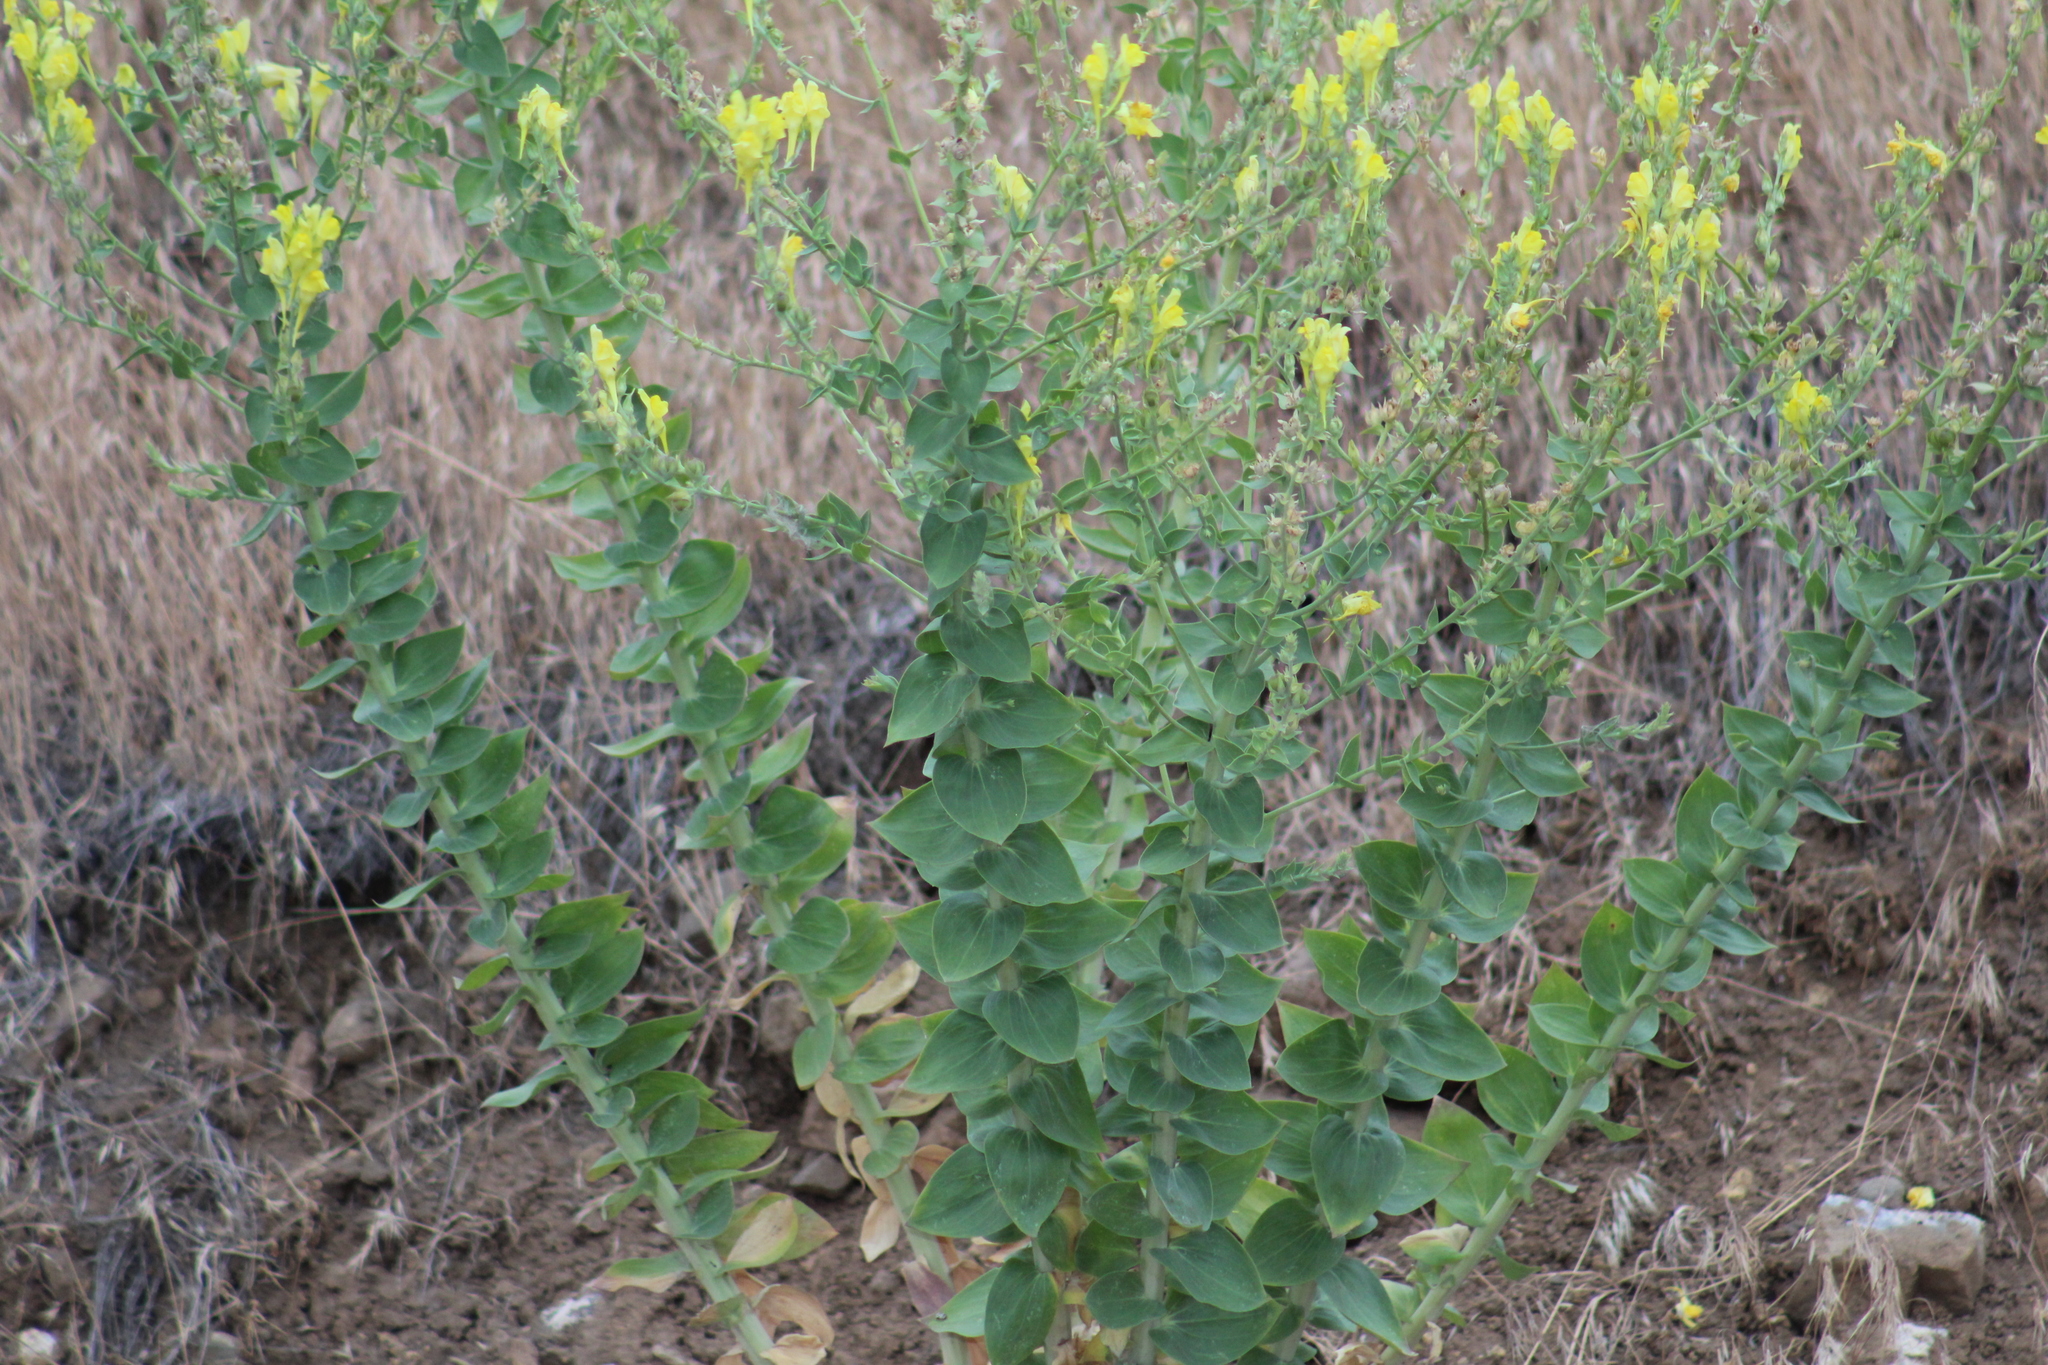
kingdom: Plantae
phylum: Tracheophyta
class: Magnoliopsida
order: Lamiales
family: Plantaginaceae
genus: Linaria
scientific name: Linaria grandiflora
